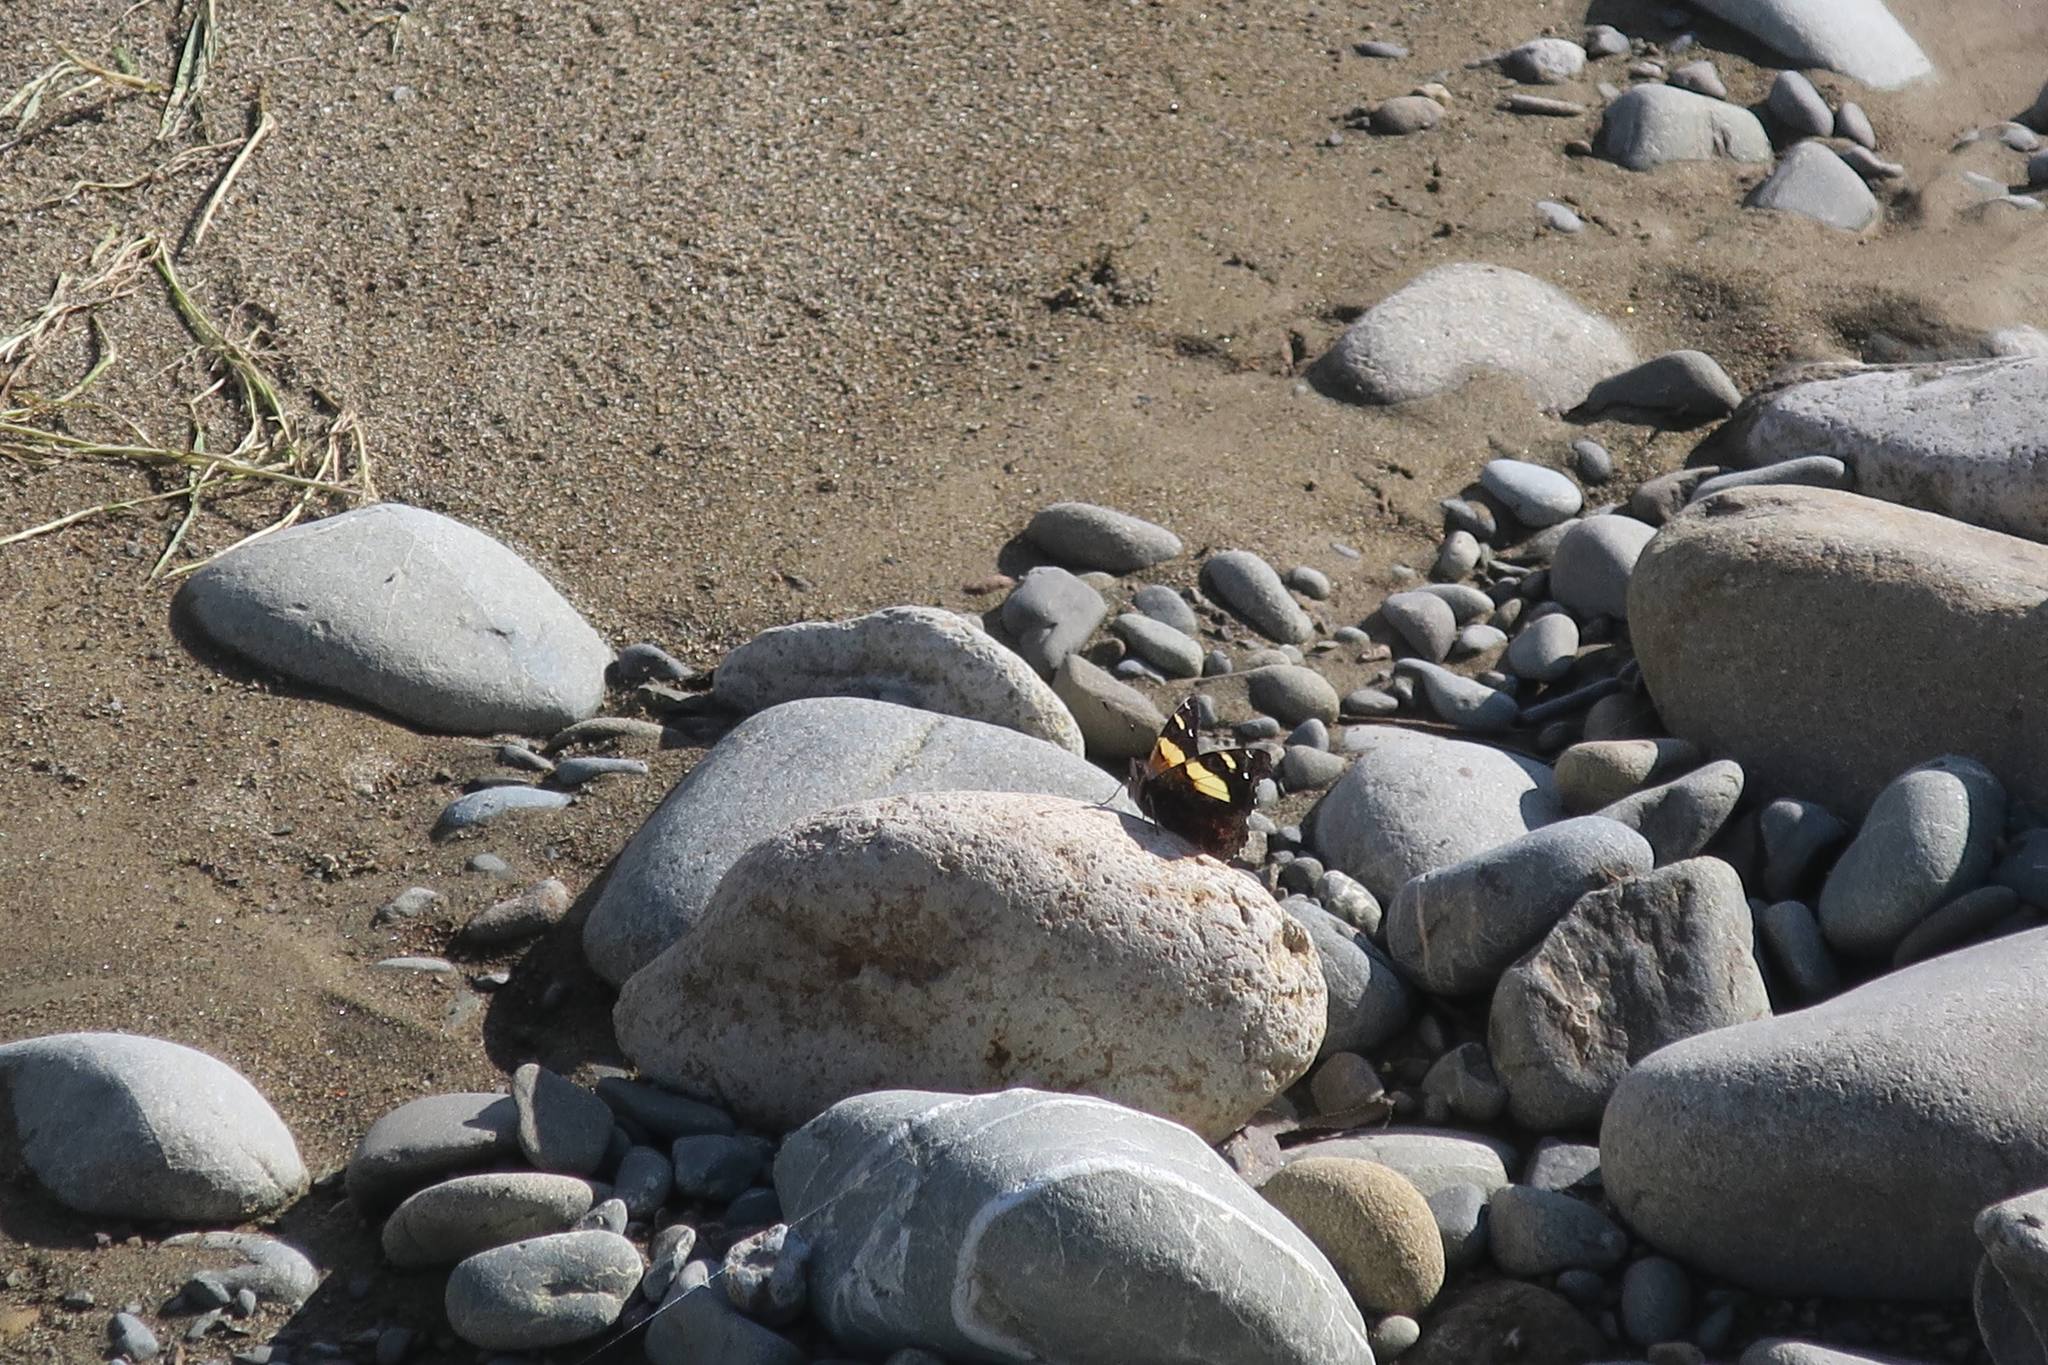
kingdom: Animalia
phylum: Arthropoda
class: Insecta
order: Lepidoptera
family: Nymphalidae
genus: Vanessa
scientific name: Vanessa itea
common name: Yellow admiral
